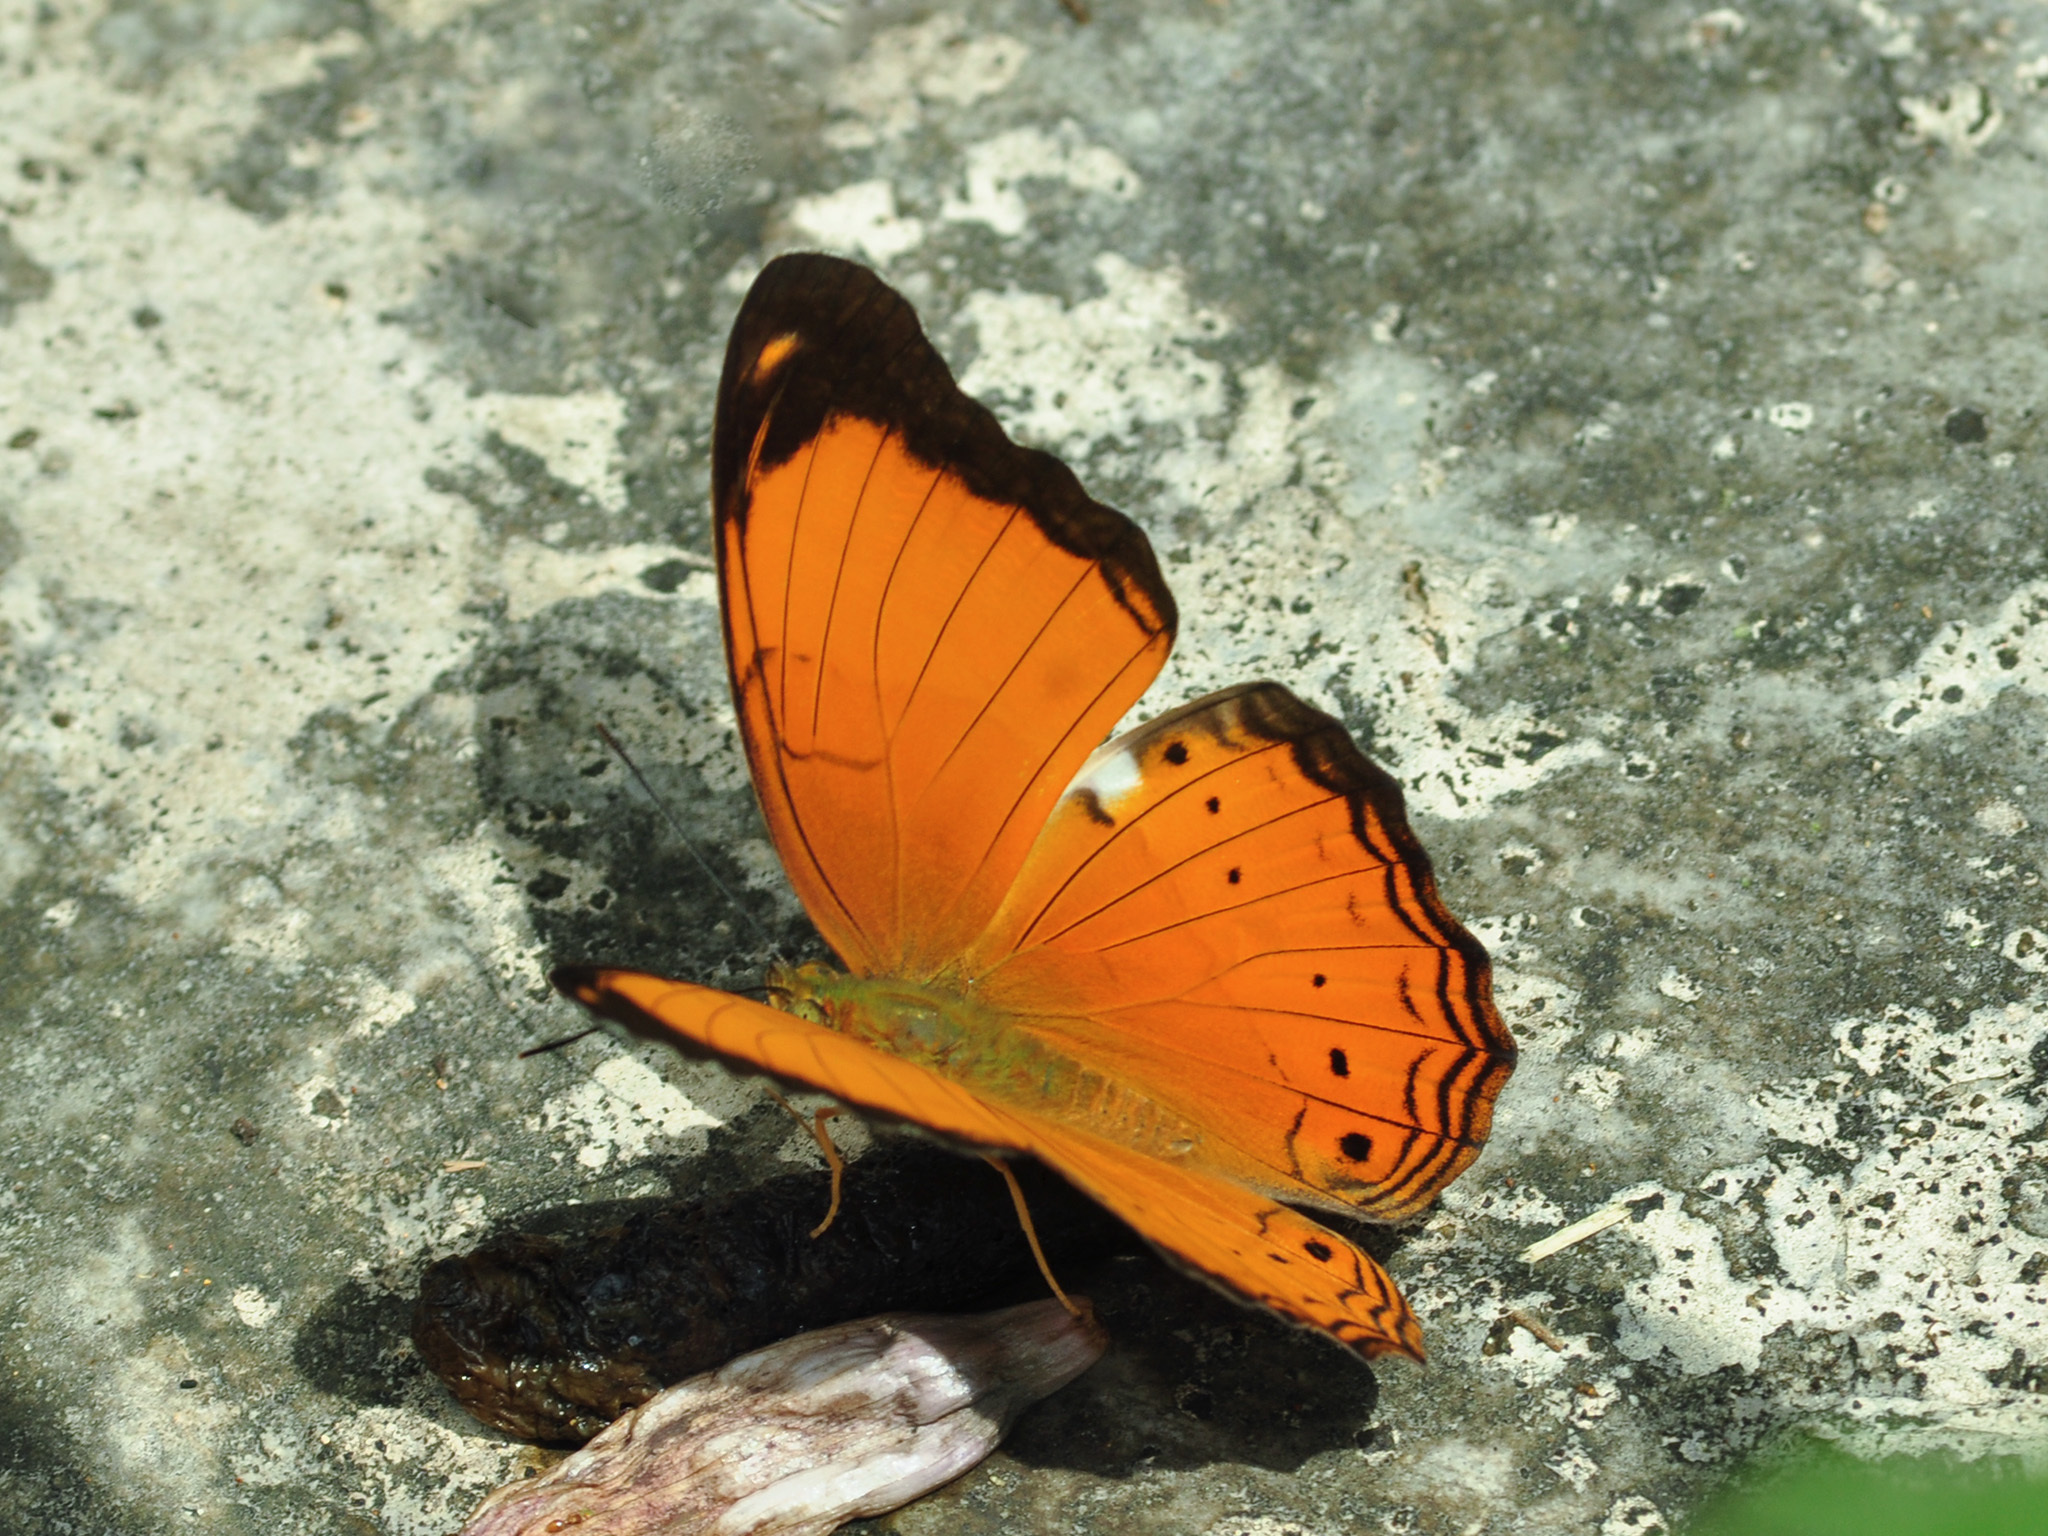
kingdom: Animalia
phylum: Arthropoda
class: Insecta
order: Lepidoptera
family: Nymphalidae
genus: Cirrochroa
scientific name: Cirrochroa emalea
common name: Malay yeoman
